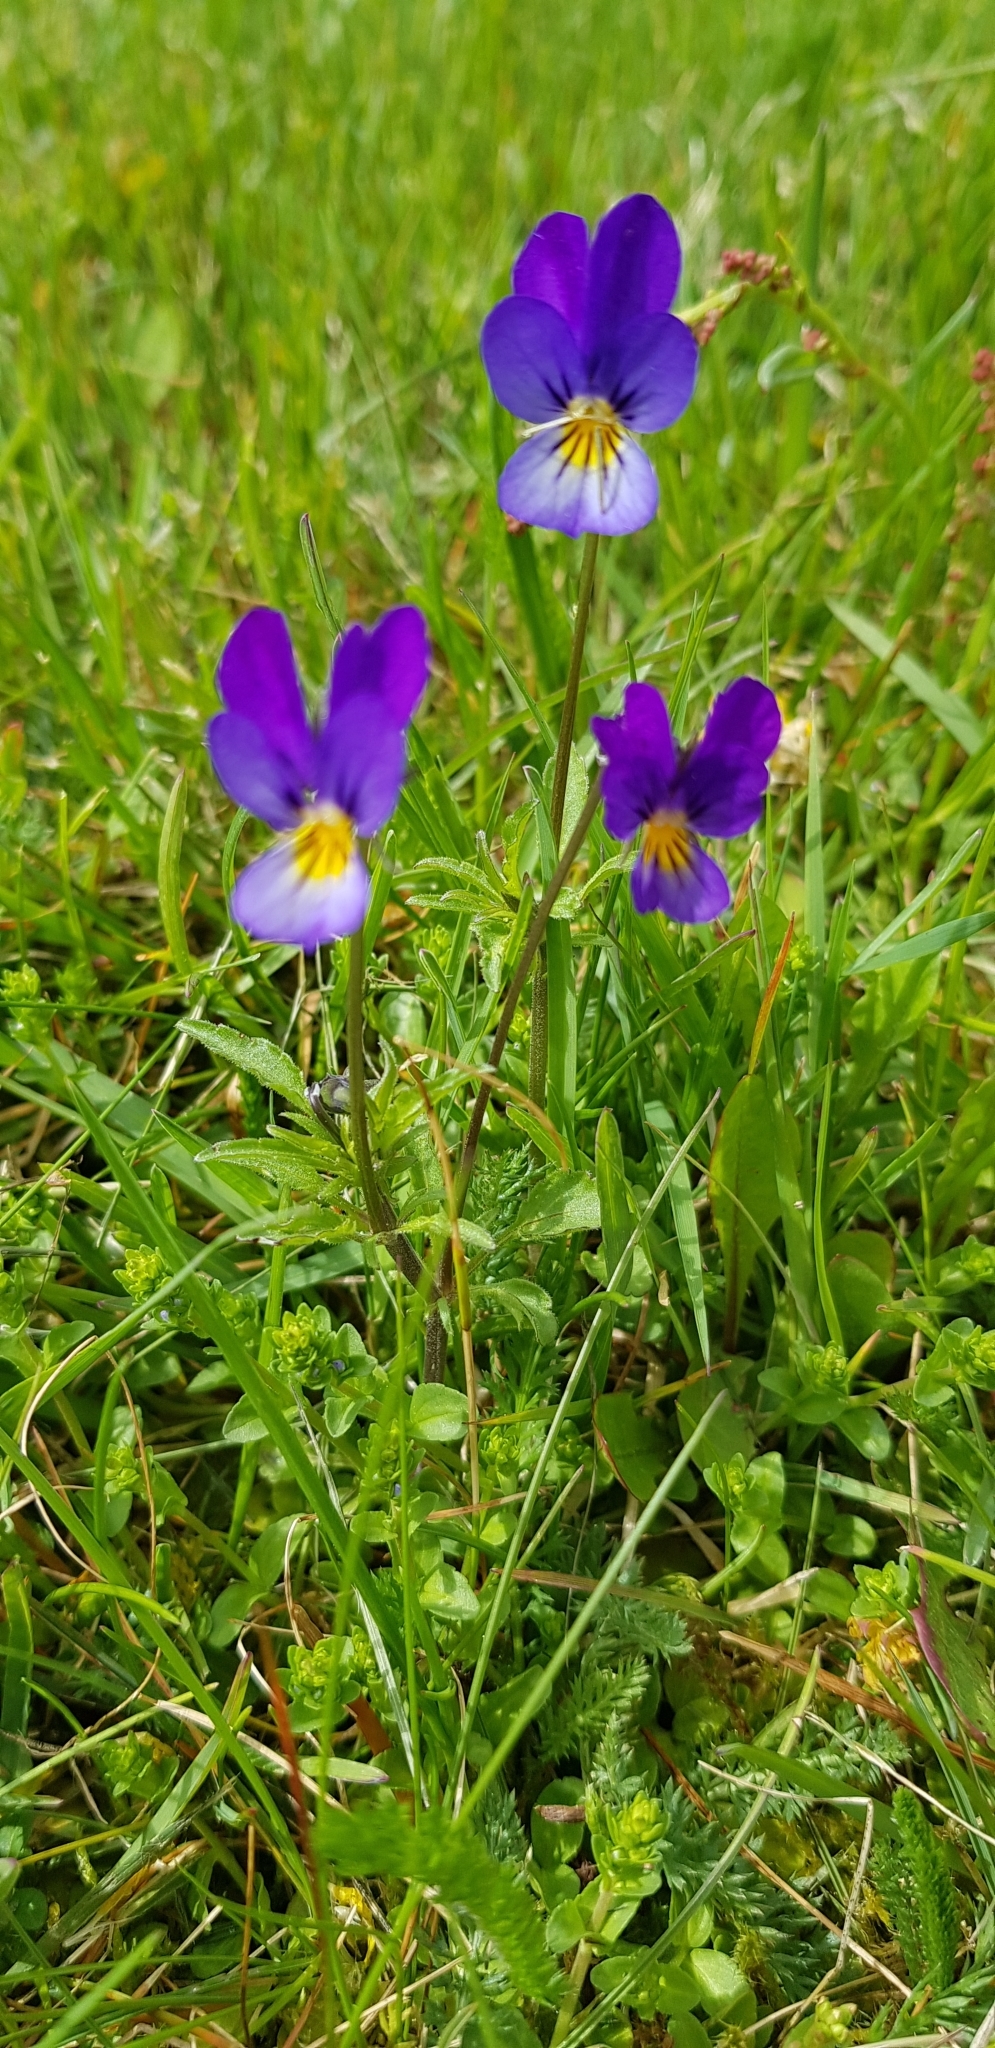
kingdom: Plantae
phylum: Tracheophyta
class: Magnoliopsida
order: Malpighiales
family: Violaceae
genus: Viola
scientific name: Viola tricolor
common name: Pansy
